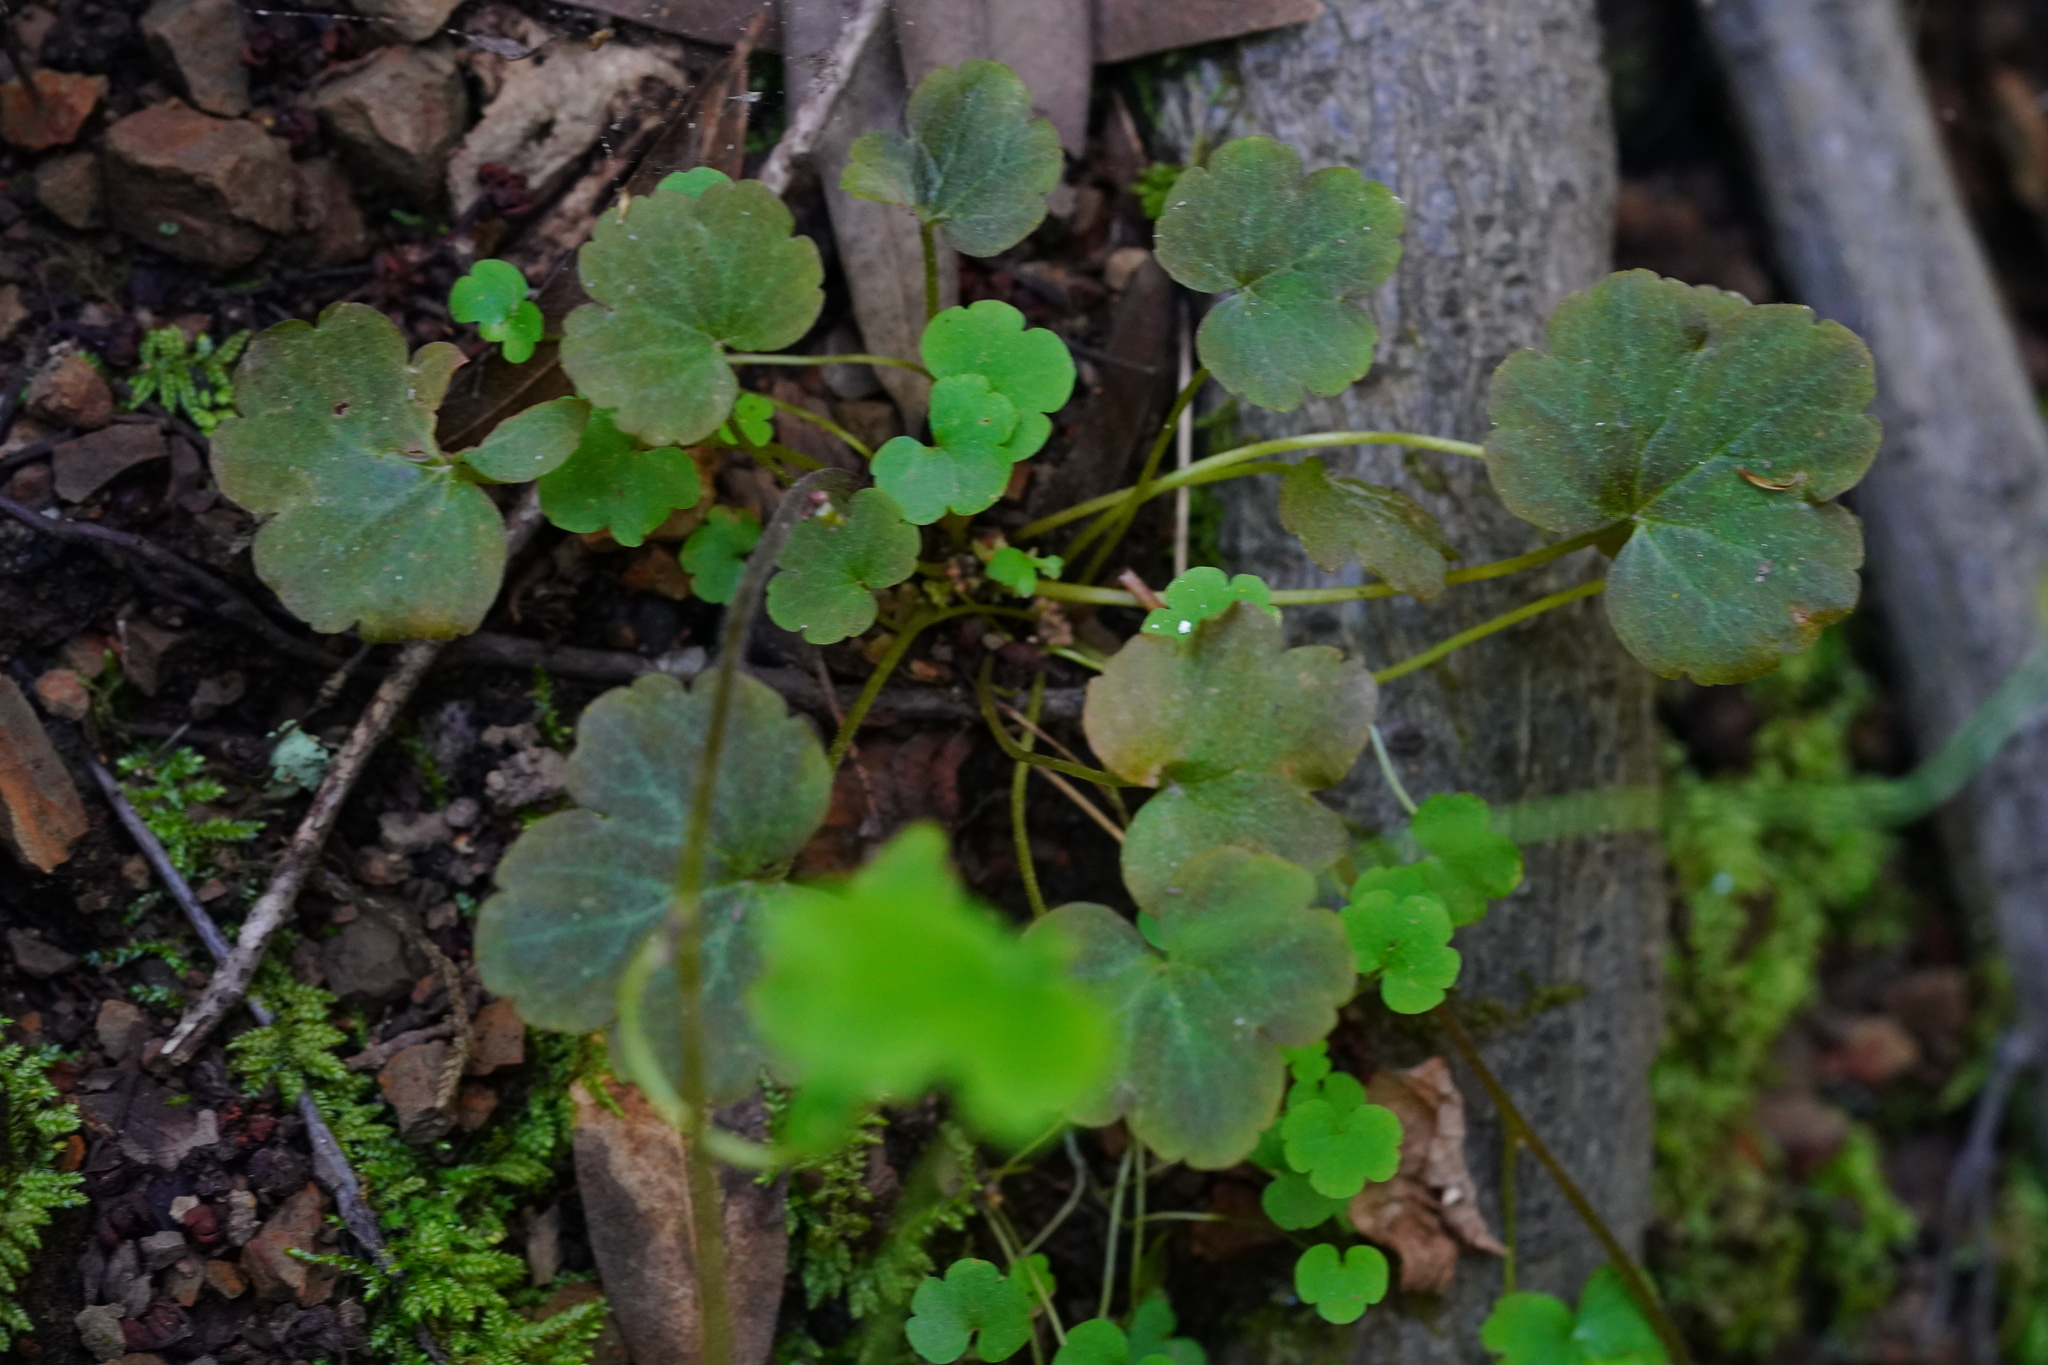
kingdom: Plantae
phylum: Tracheophyta
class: Magnoliopsida
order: Saxifragales
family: Saxifragaceae
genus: Lithophragma
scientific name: Lithophragma heterophyllum
